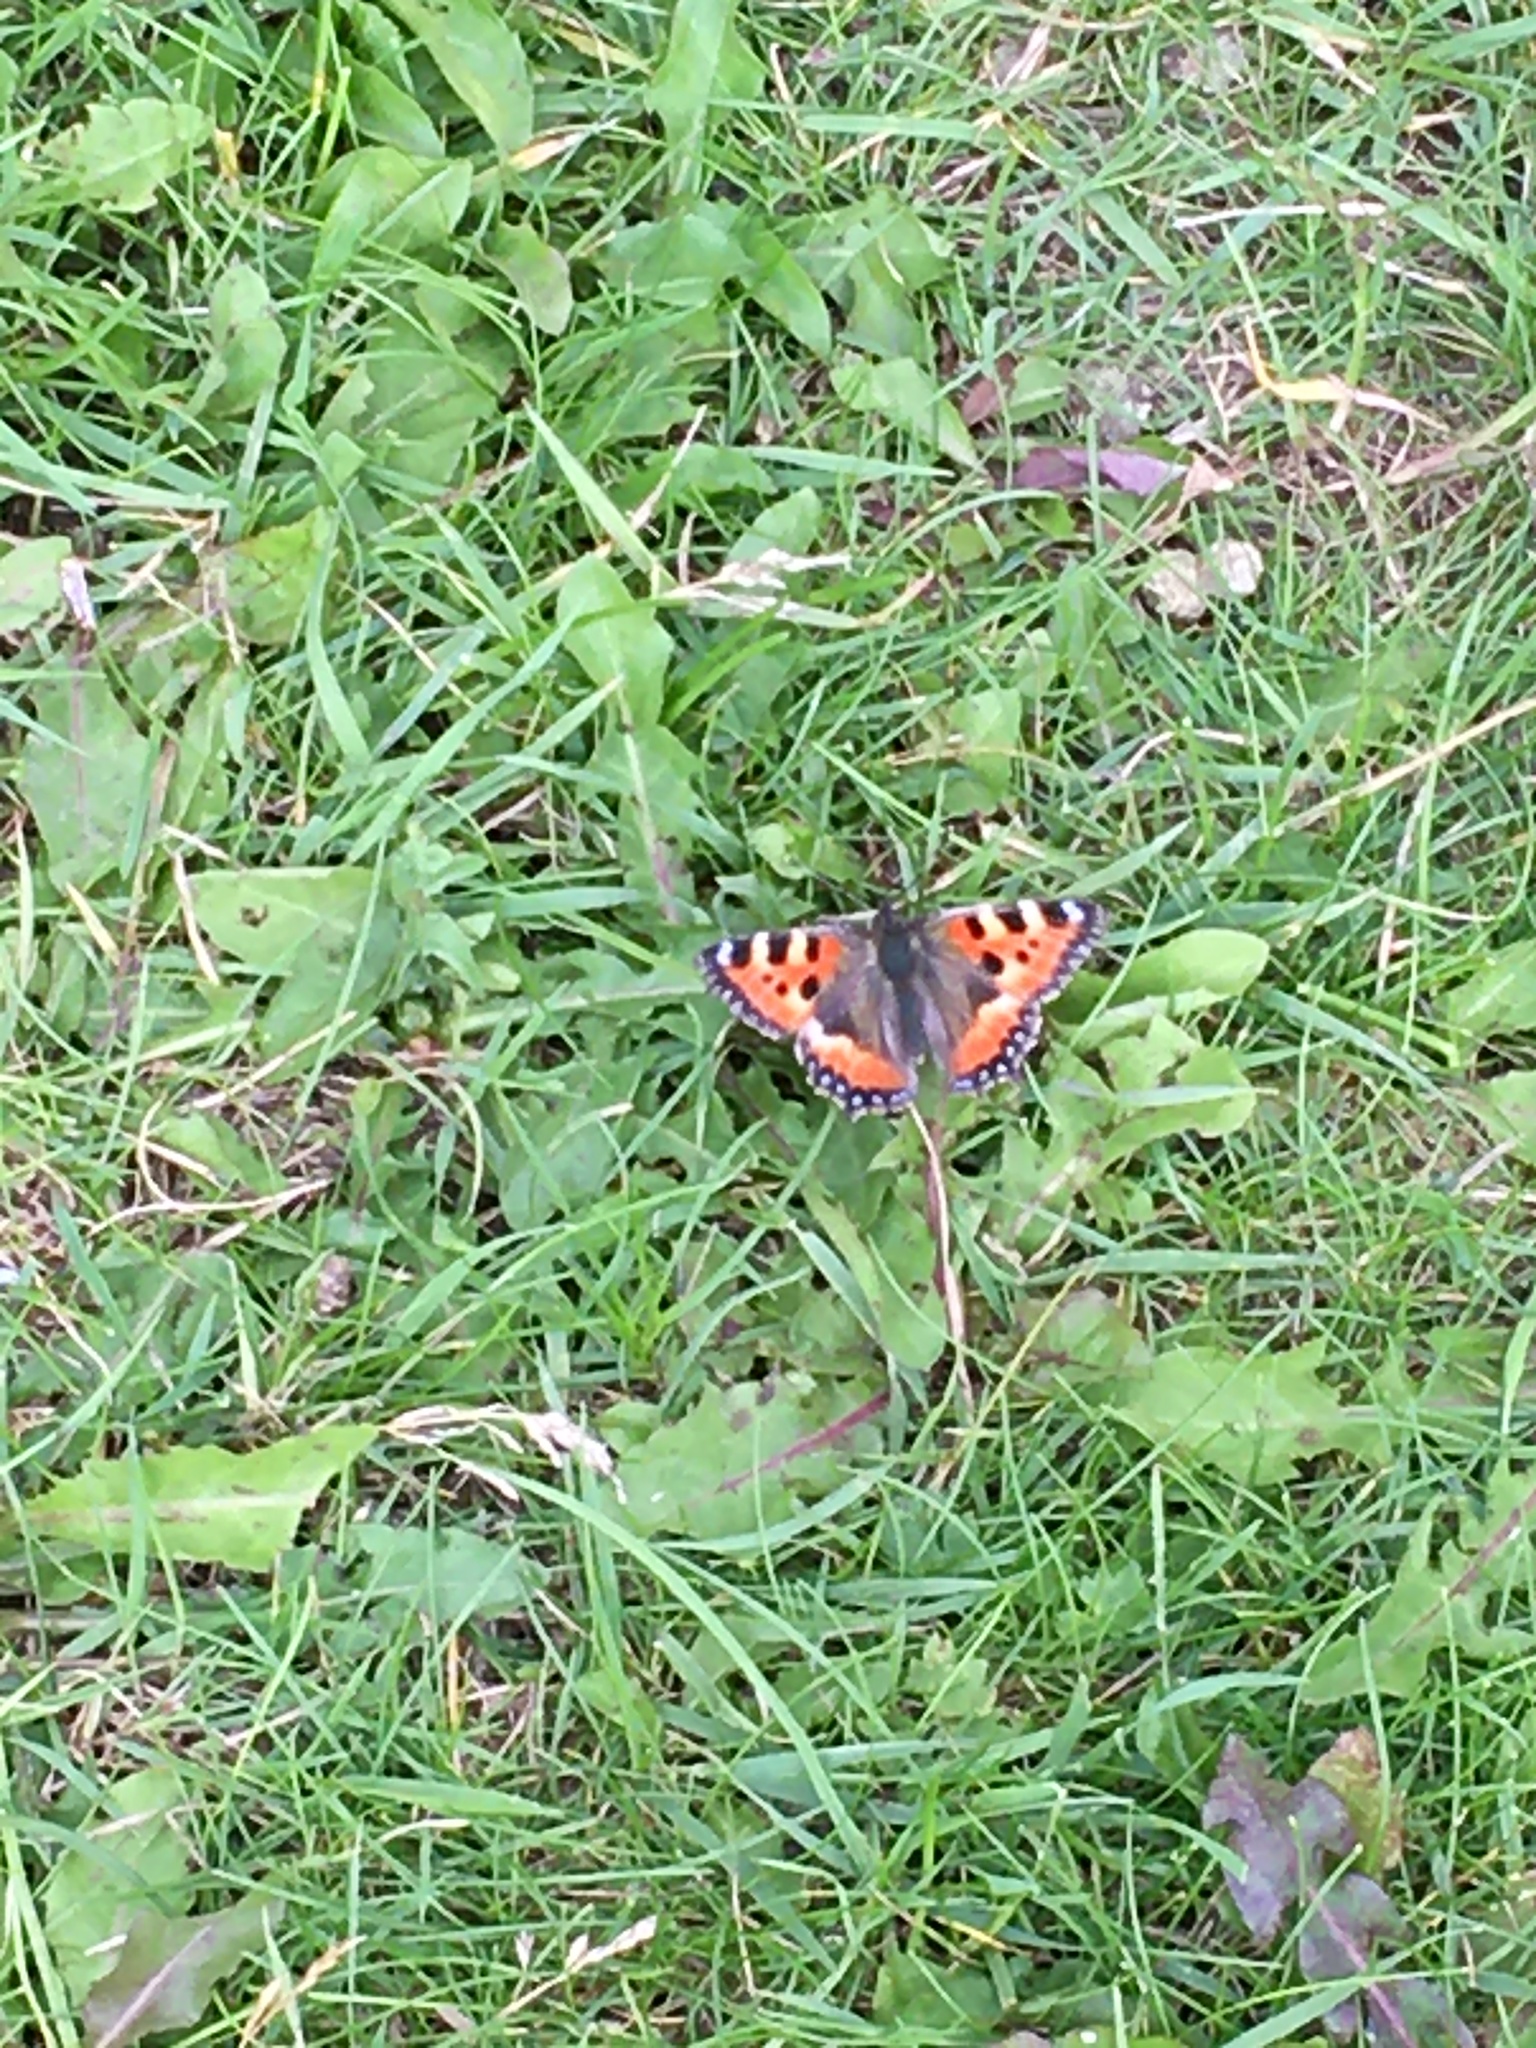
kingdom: Animalia
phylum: Arthropoda
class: Insecta
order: Lepidoptera
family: Nymphalidae
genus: Aglais
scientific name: Aglais urticae
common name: Small tortoiseshell
